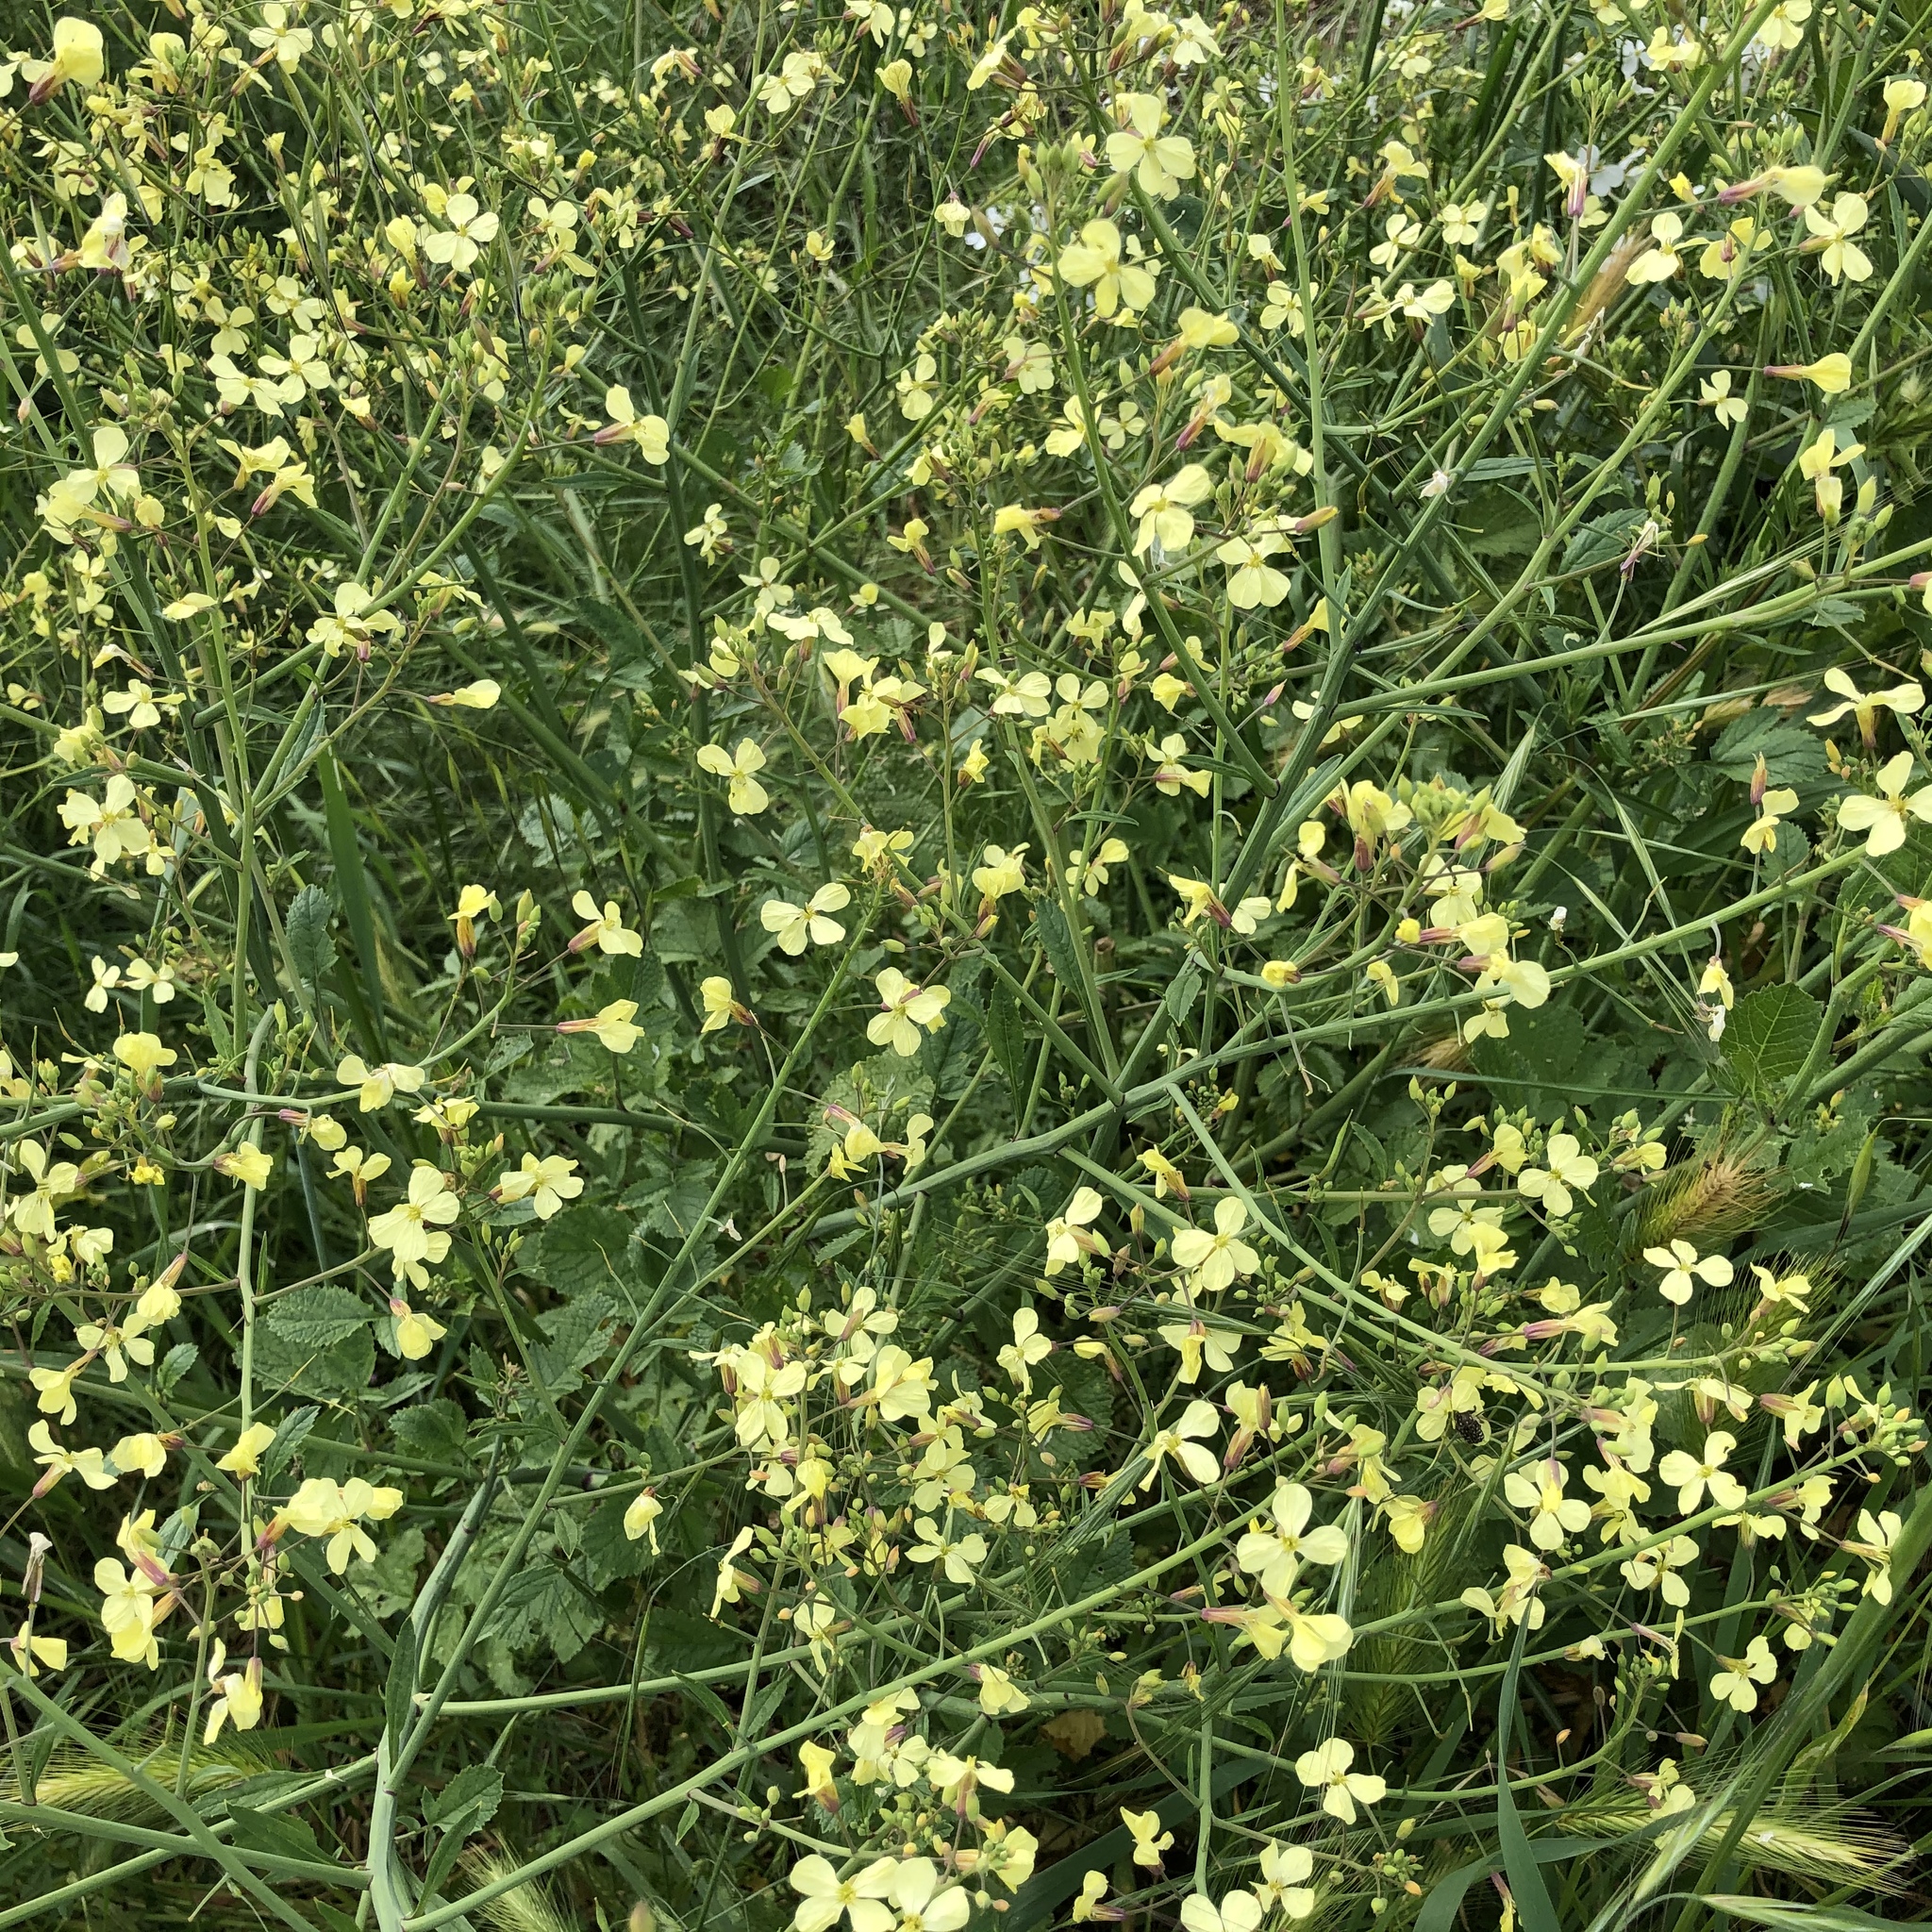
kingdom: Plantae
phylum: Tracheophyta
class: Magnoliopsida
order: Brassicales
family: Brassicaceae
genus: Raphanus
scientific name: Raphanus raphanistrum
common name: Wild radish
